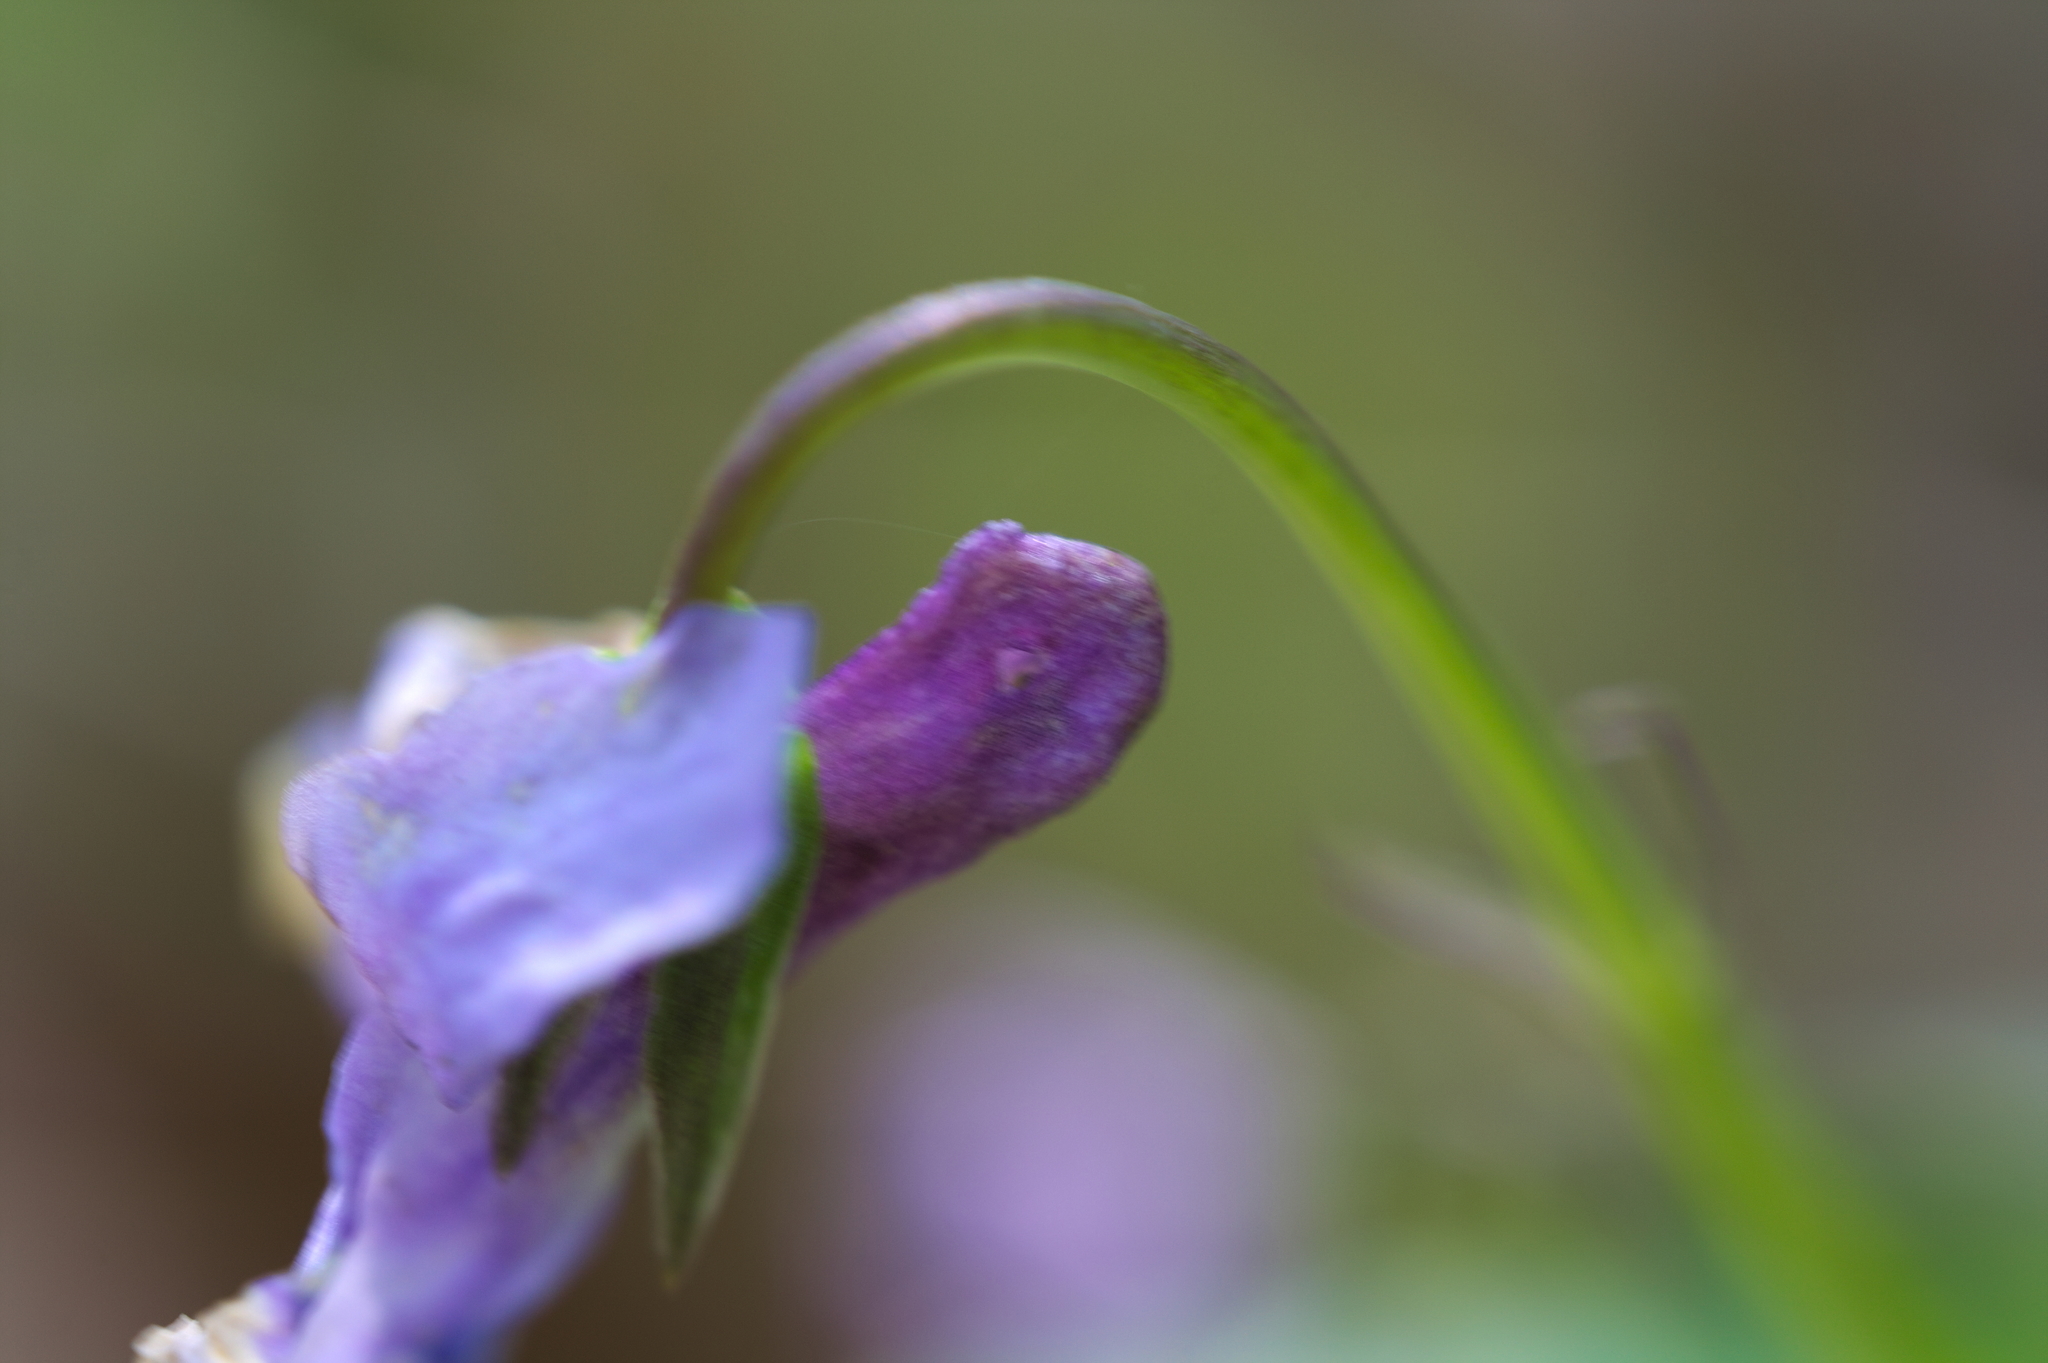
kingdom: Plantae
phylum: Tracheophyta
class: Magnoliopsida
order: Malpighiales
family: Violaceae
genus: Viola
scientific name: Viola reichenbachiana
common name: Early dog-violet
